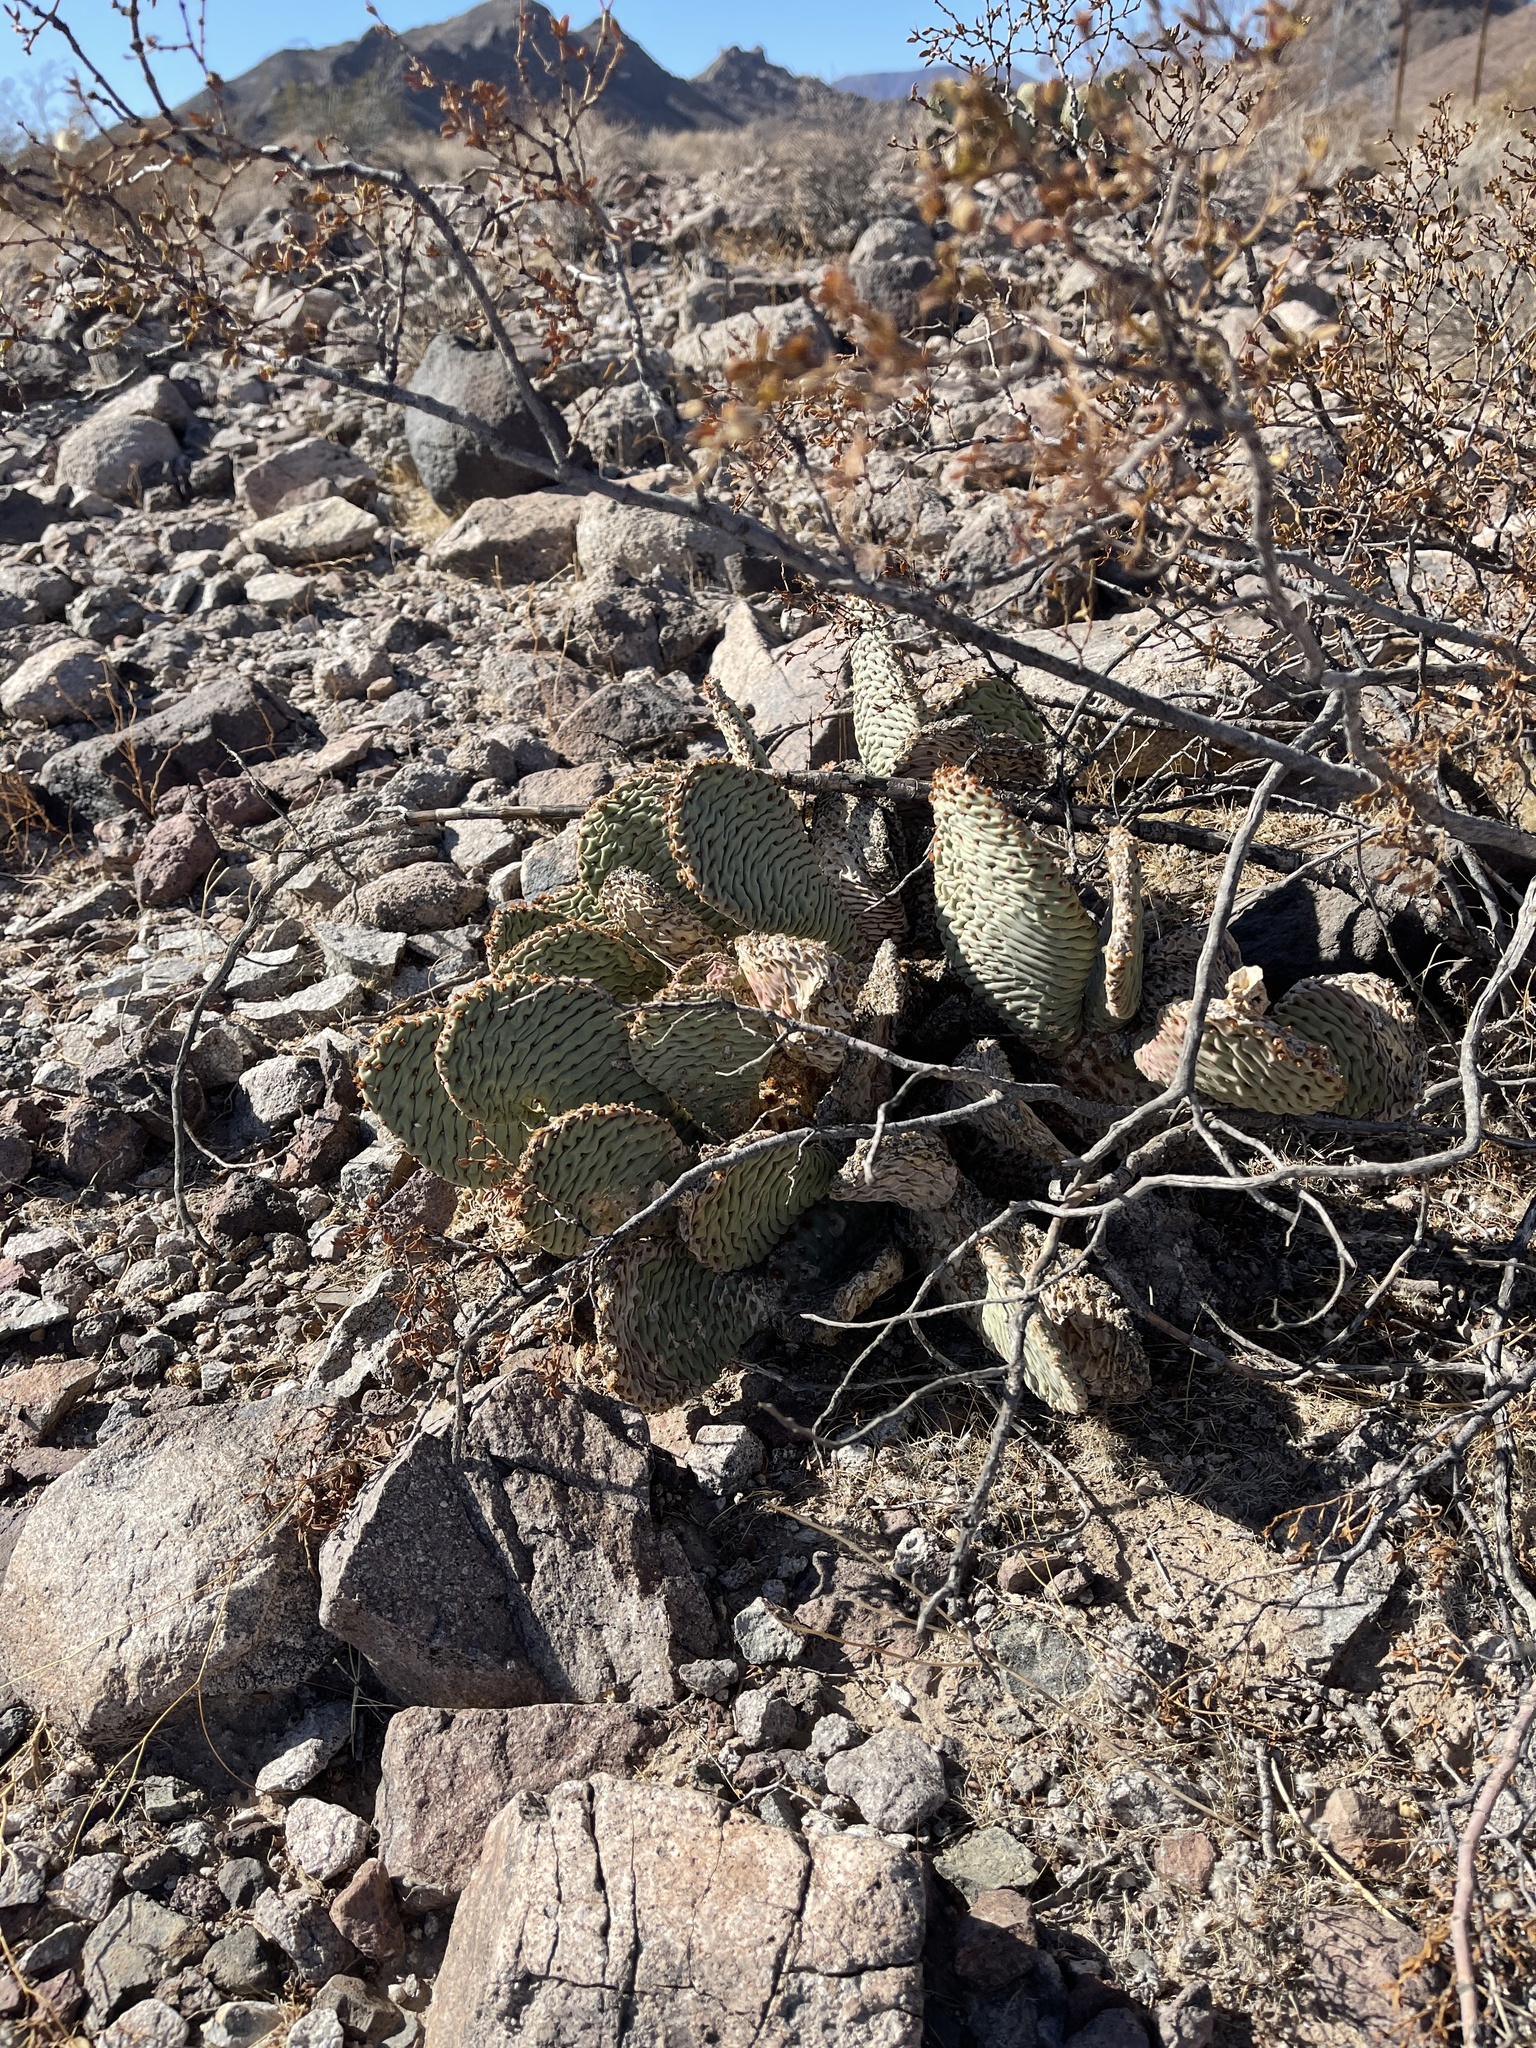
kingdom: Plantae
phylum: Tracheophyta
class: Magnoliopsida
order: Caryophyllales
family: Cactaceae
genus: Opuntia
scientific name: Opuntia basilaris
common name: Beavertail prickly-pear
